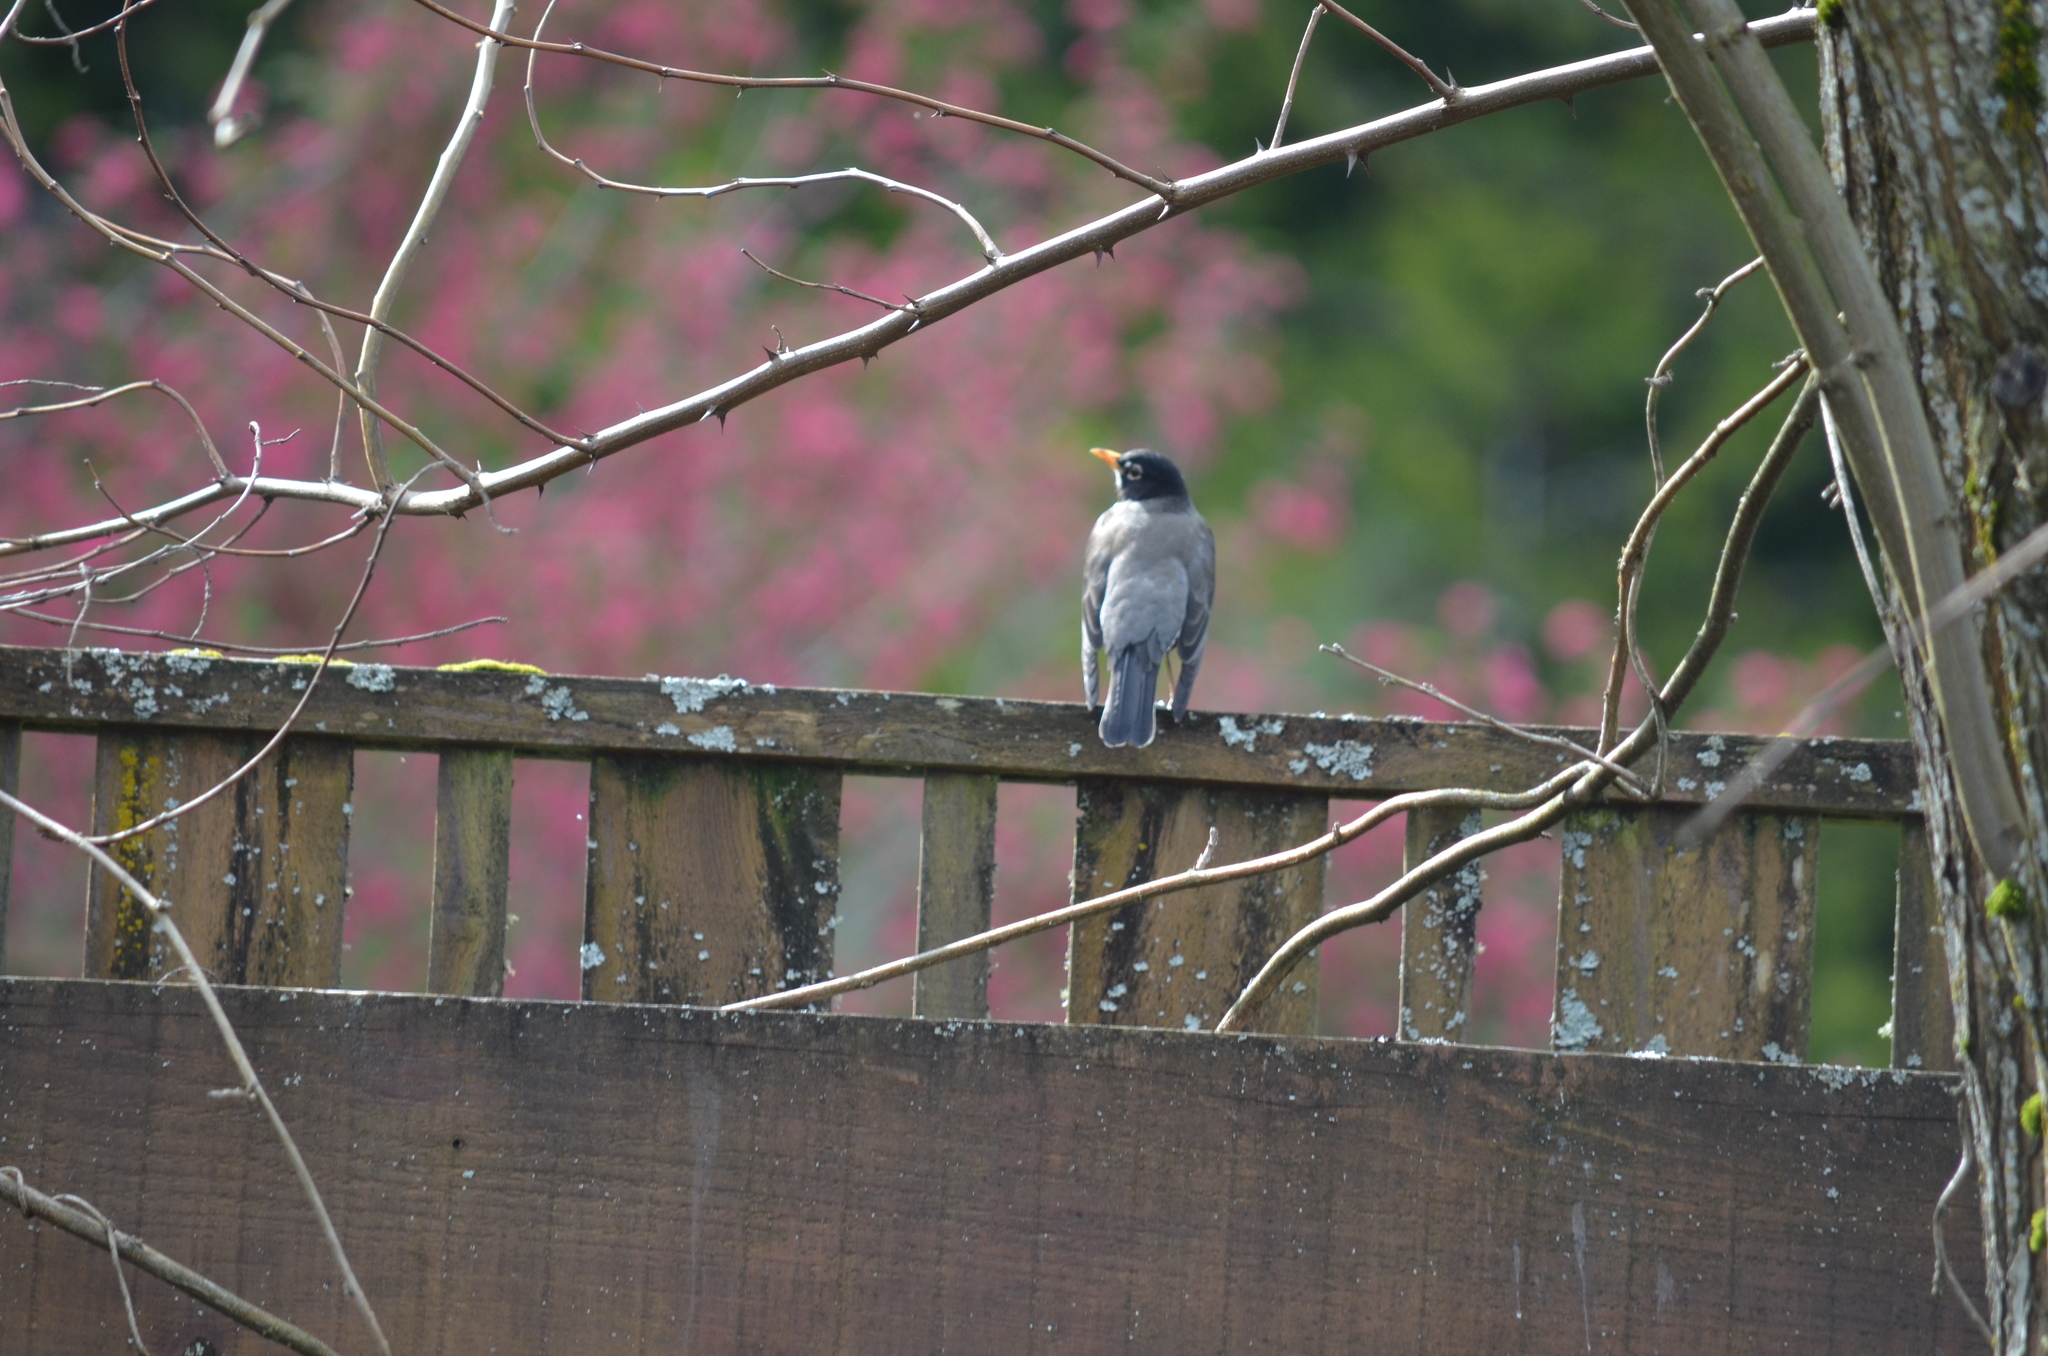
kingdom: Animalia
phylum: Chordata
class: Aves
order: Passeriformes
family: Turdidae
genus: Turdus
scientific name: Turdus migratorius
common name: American robin
